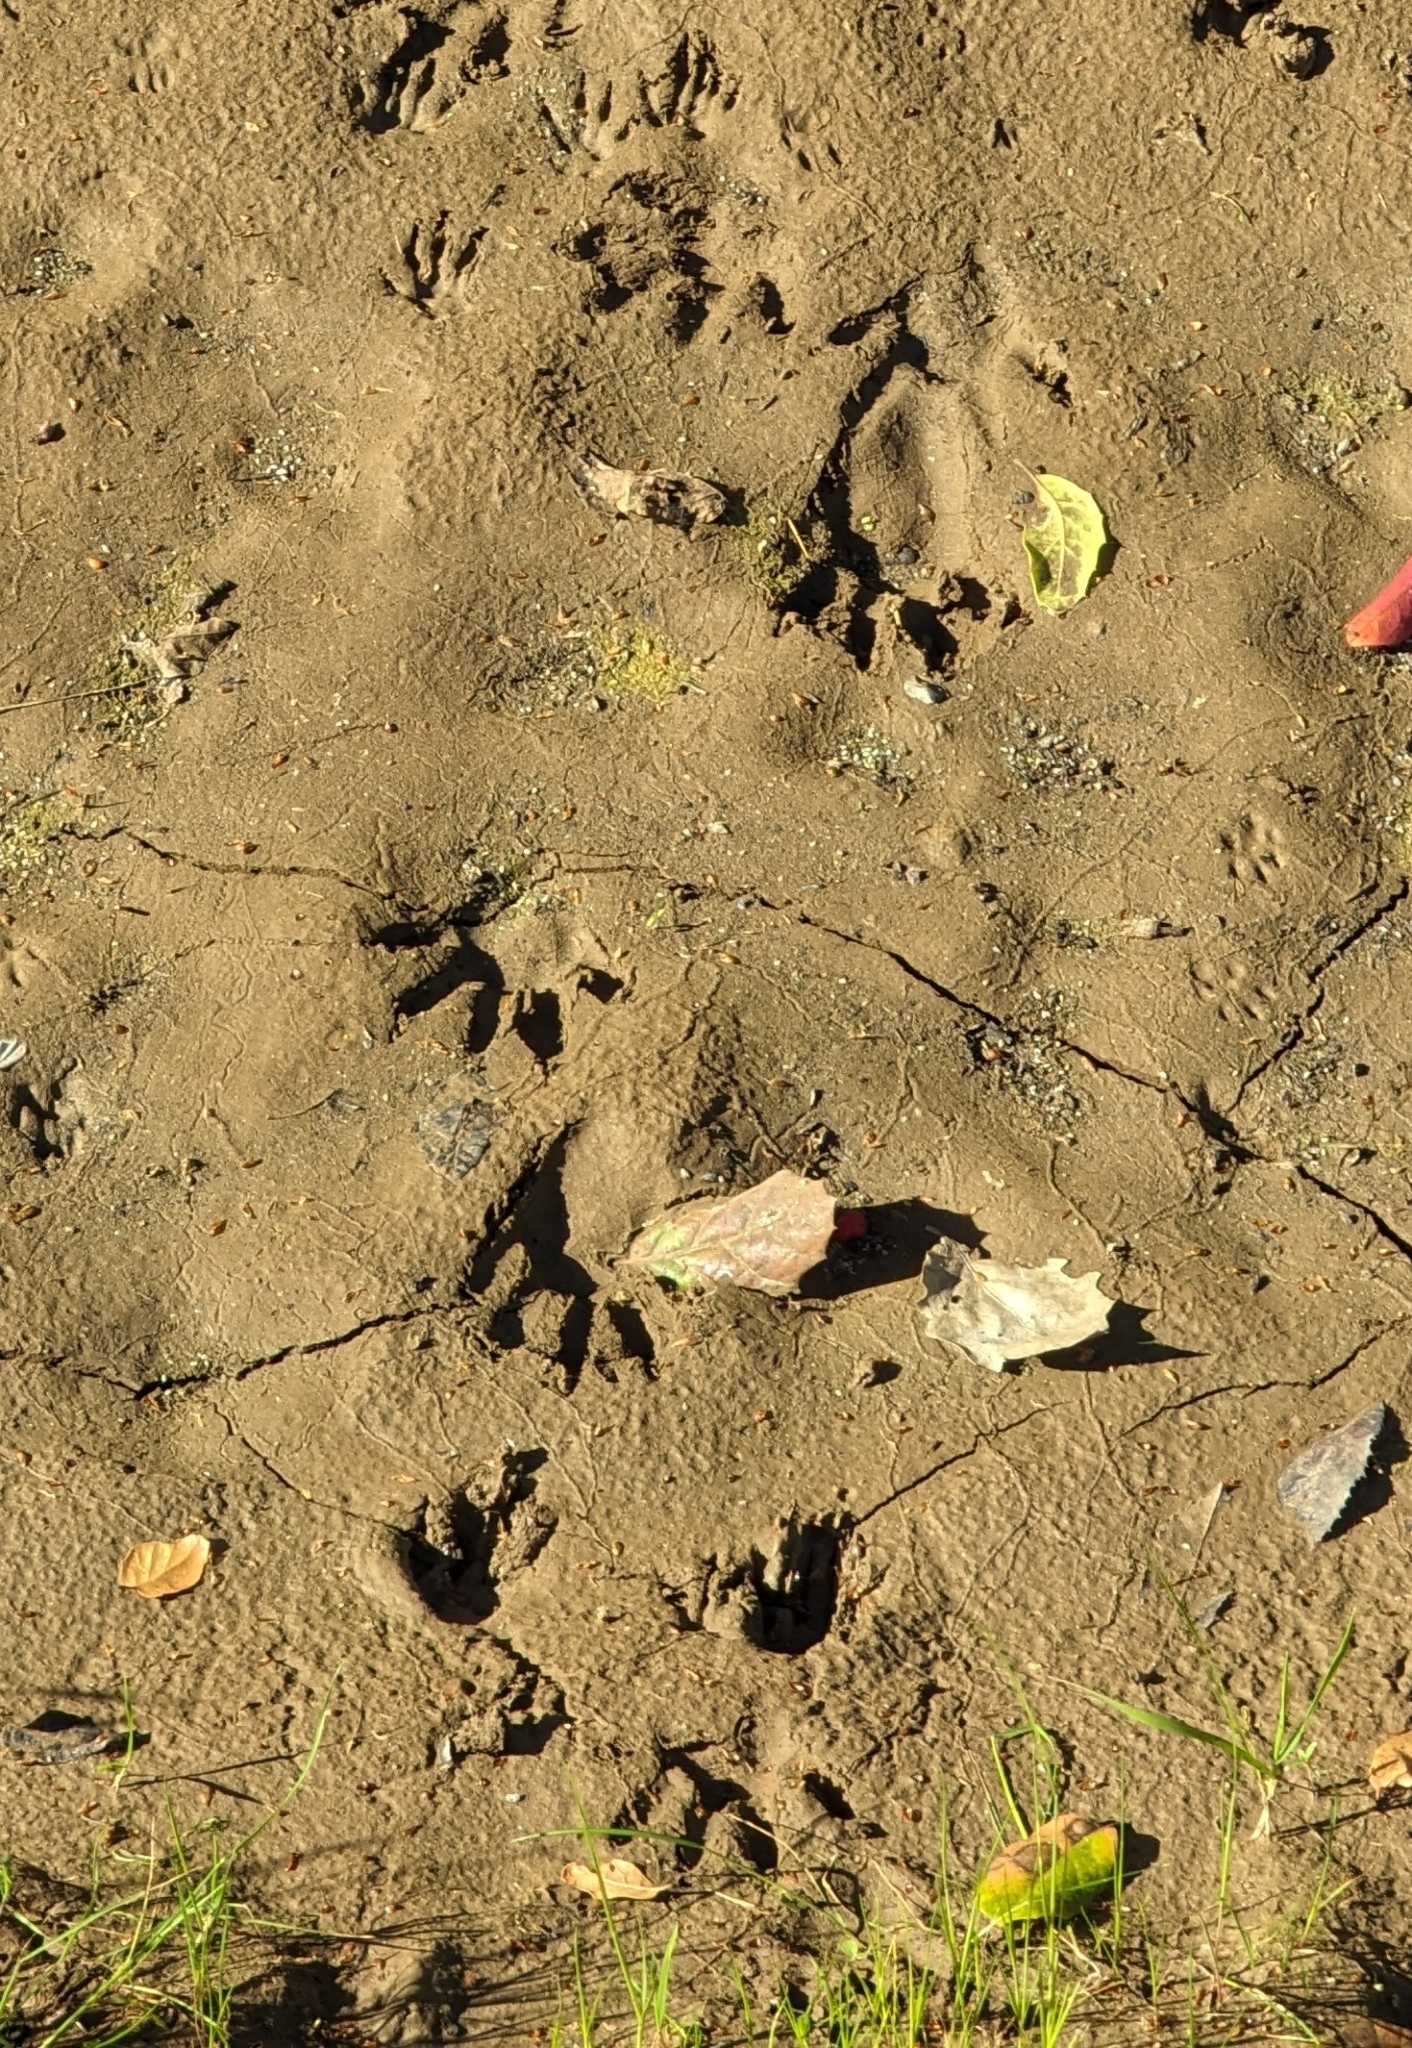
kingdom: Animalia
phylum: Chordata
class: Mammalia
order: Carnivora
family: Procyonidae
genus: Procyon
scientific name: Procyon lotor
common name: Raccoon
